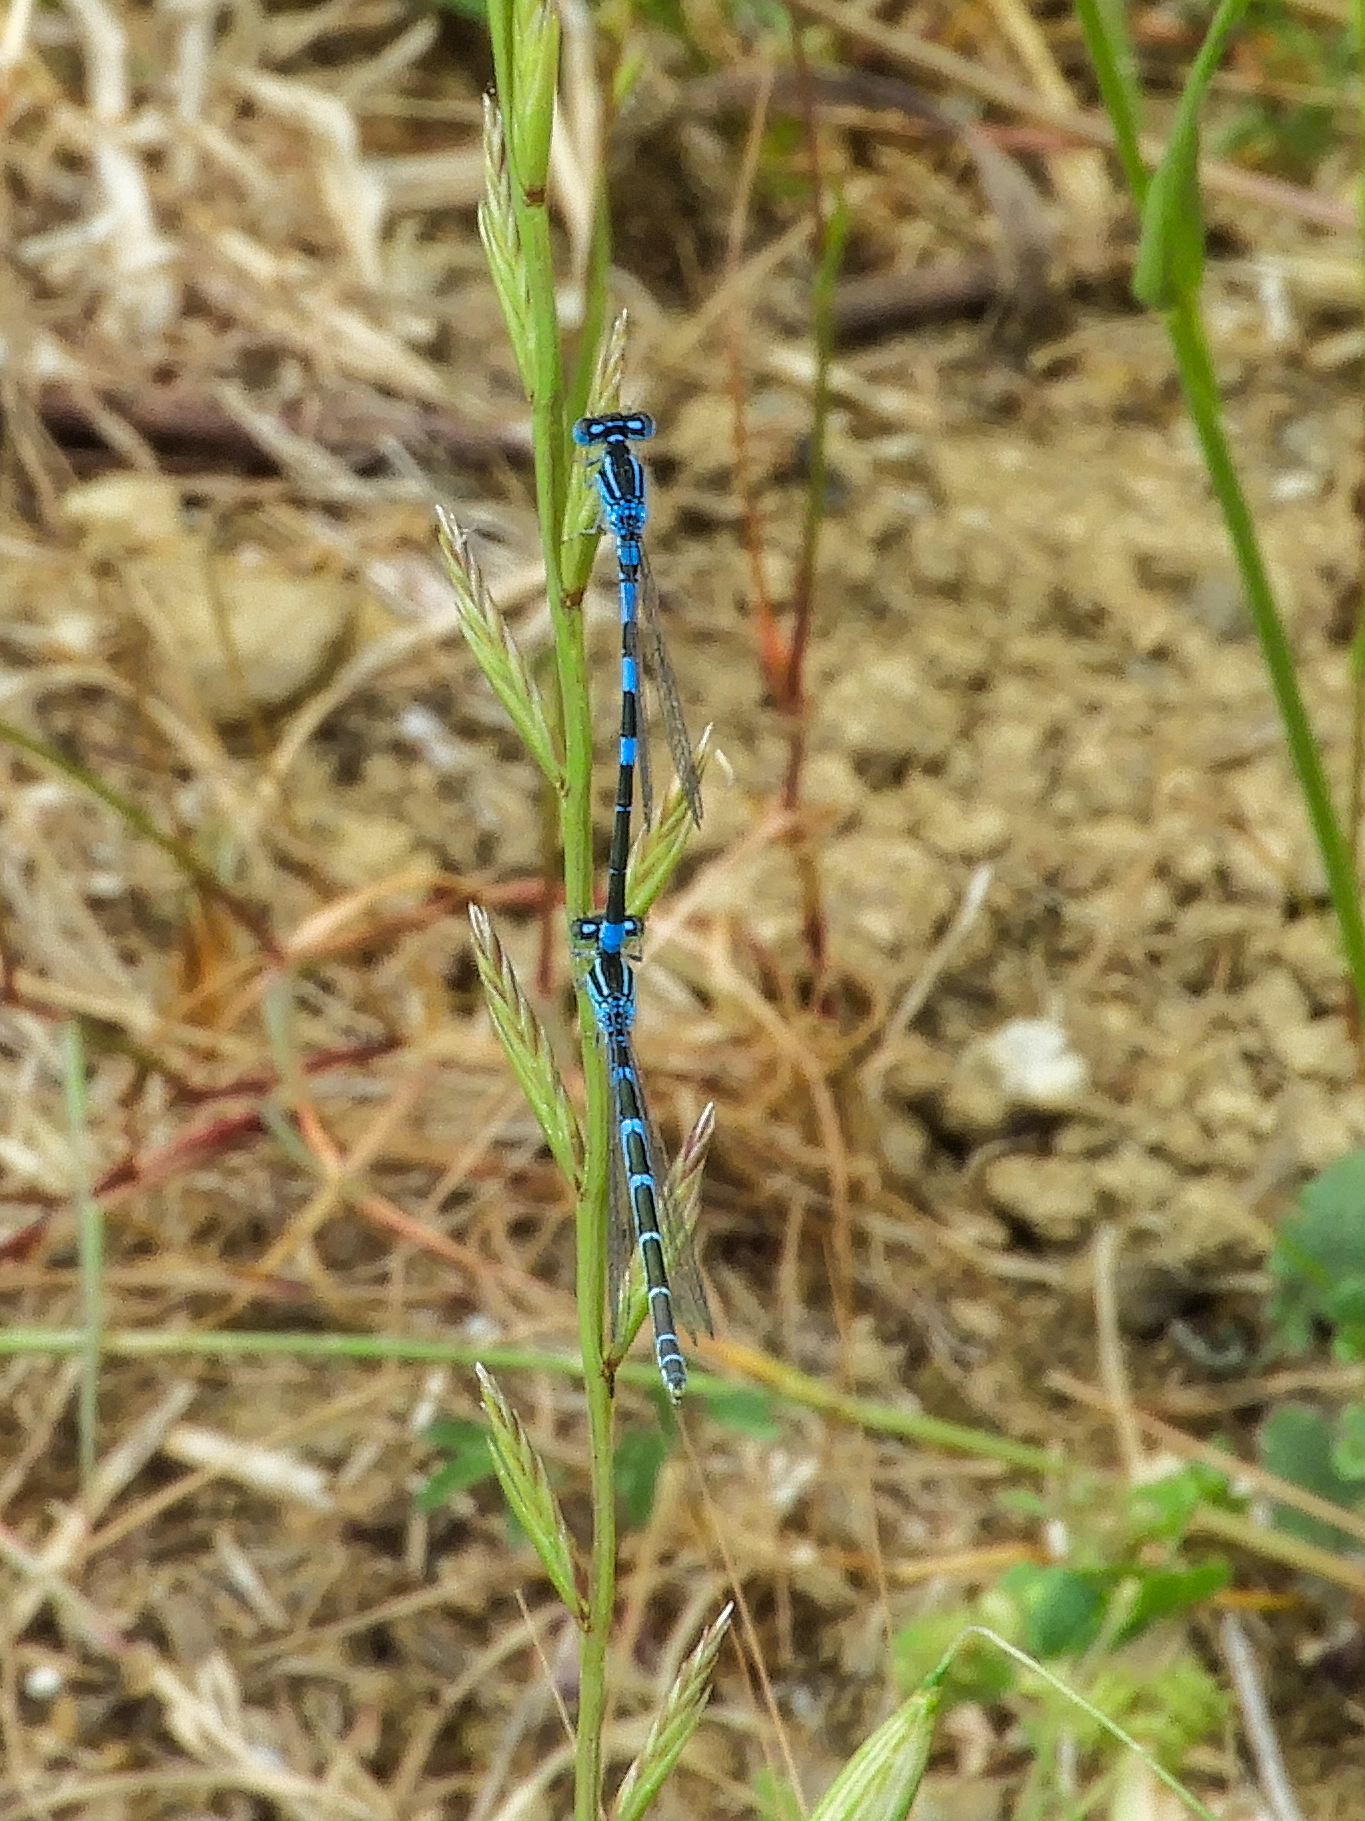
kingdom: Animalia
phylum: Arthropoda
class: Insecta
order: Odonata
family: Coenagrionidae
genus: Coenagrion
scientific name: Coenagrion scitulum
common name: Dainty bluet
